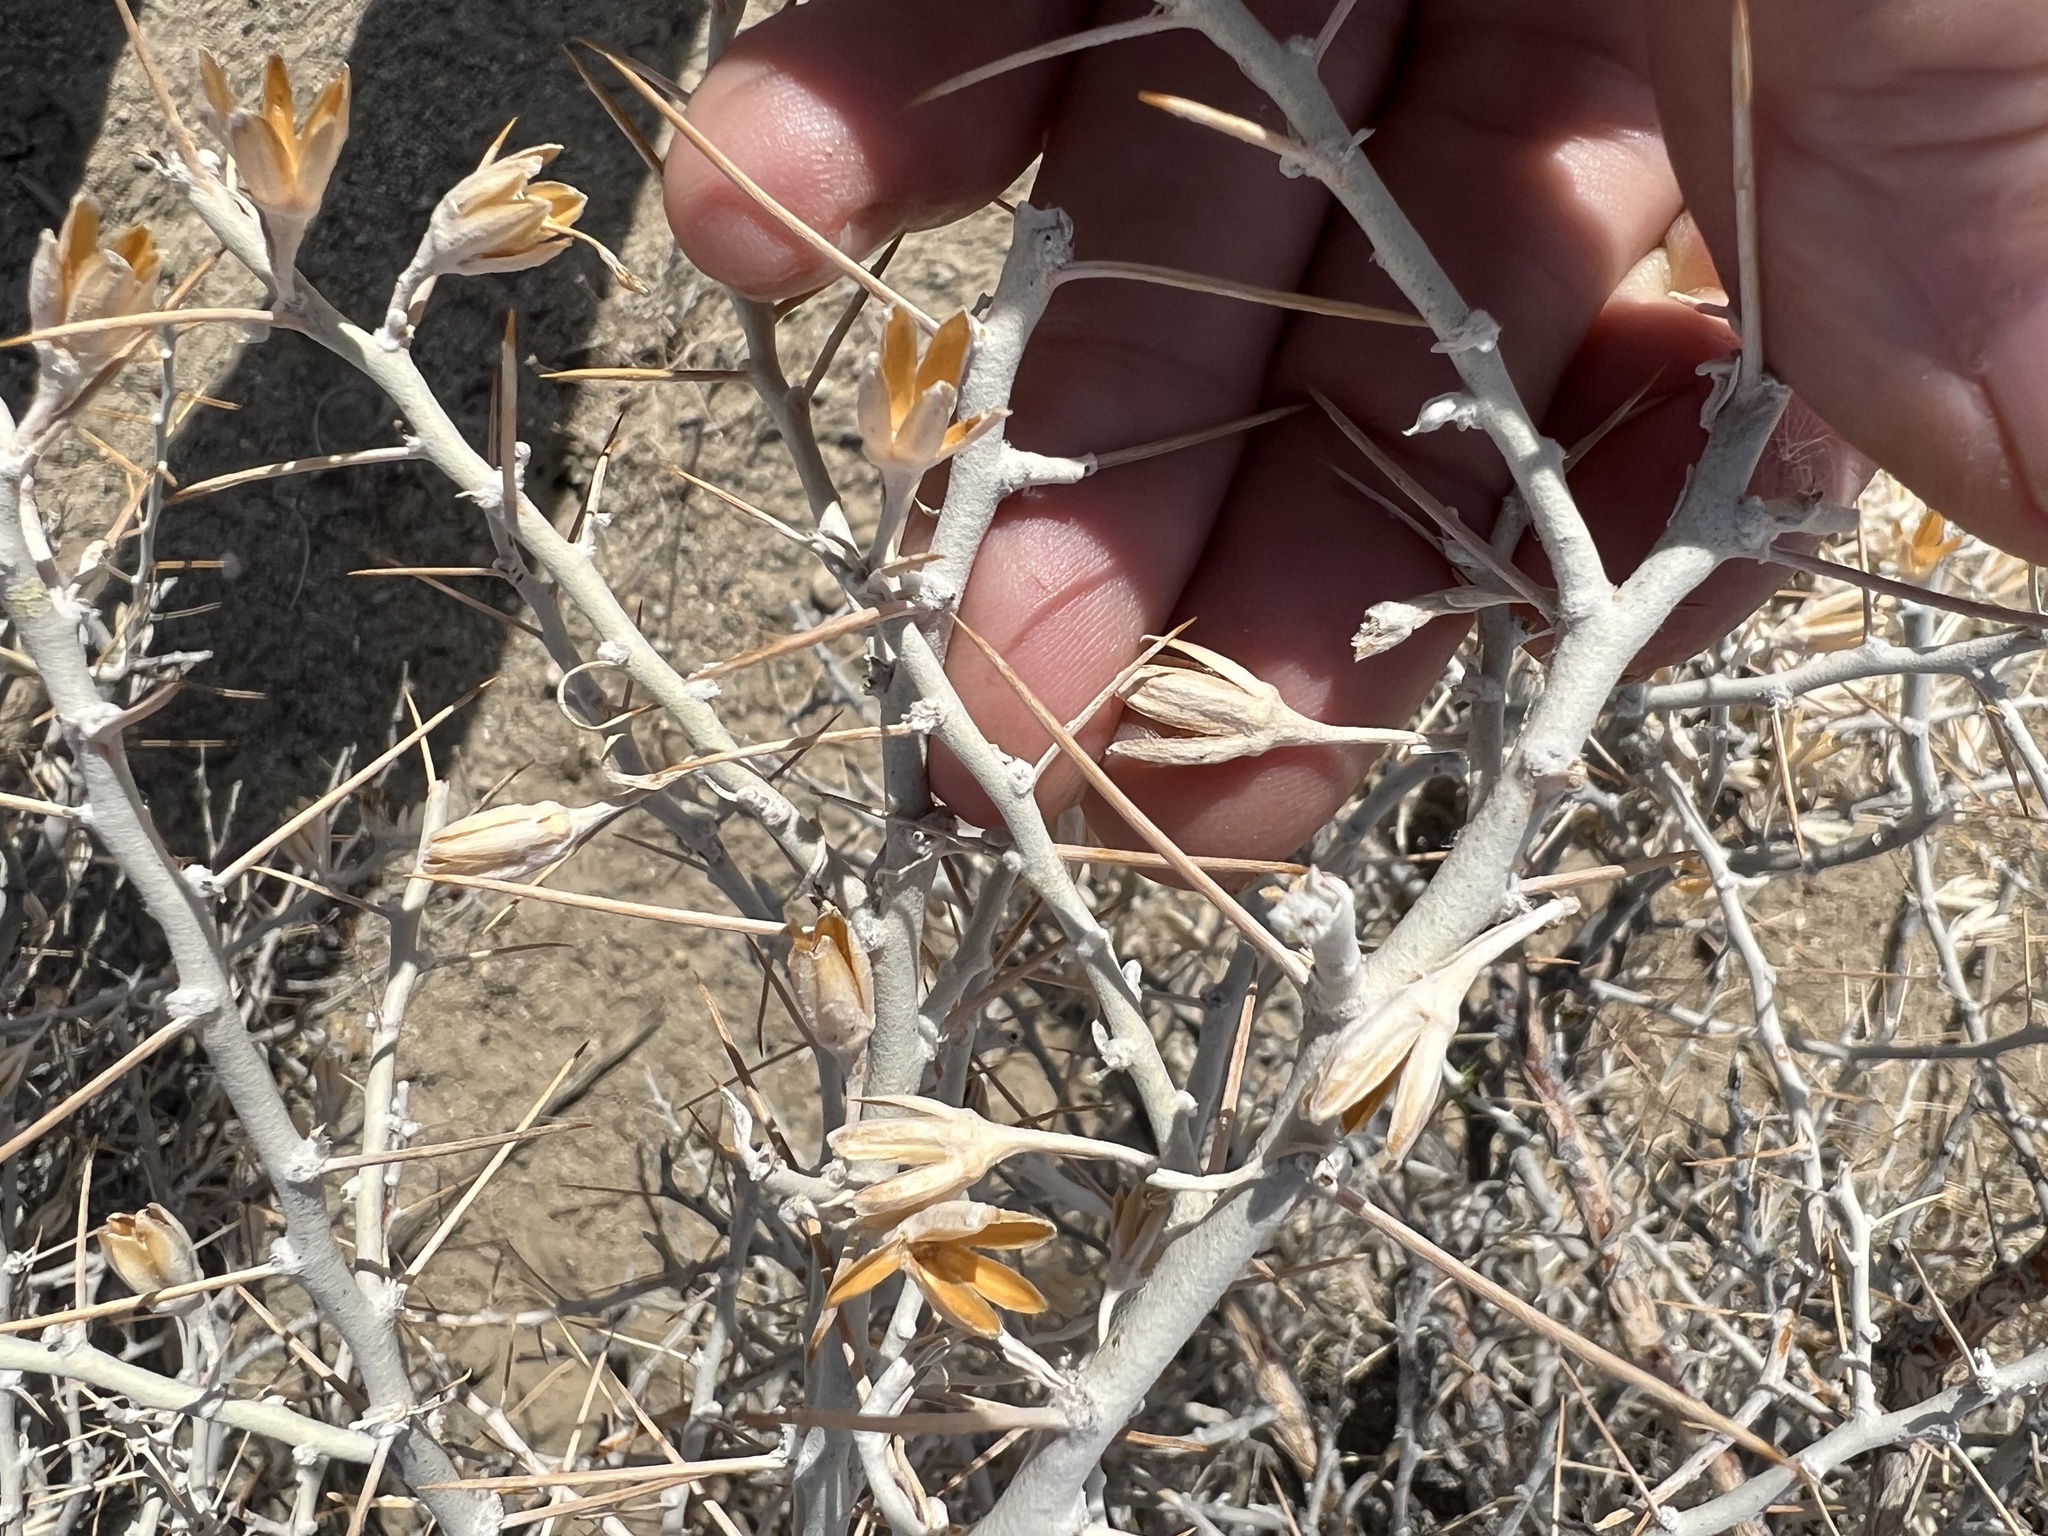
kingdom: Plantae
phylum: Tracheophyta
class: Magnoliopsida
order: Asterales
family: Asteraceae
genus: Tetradymia
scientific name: Tetradymia axillaris
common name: Long-spine horsebrush
